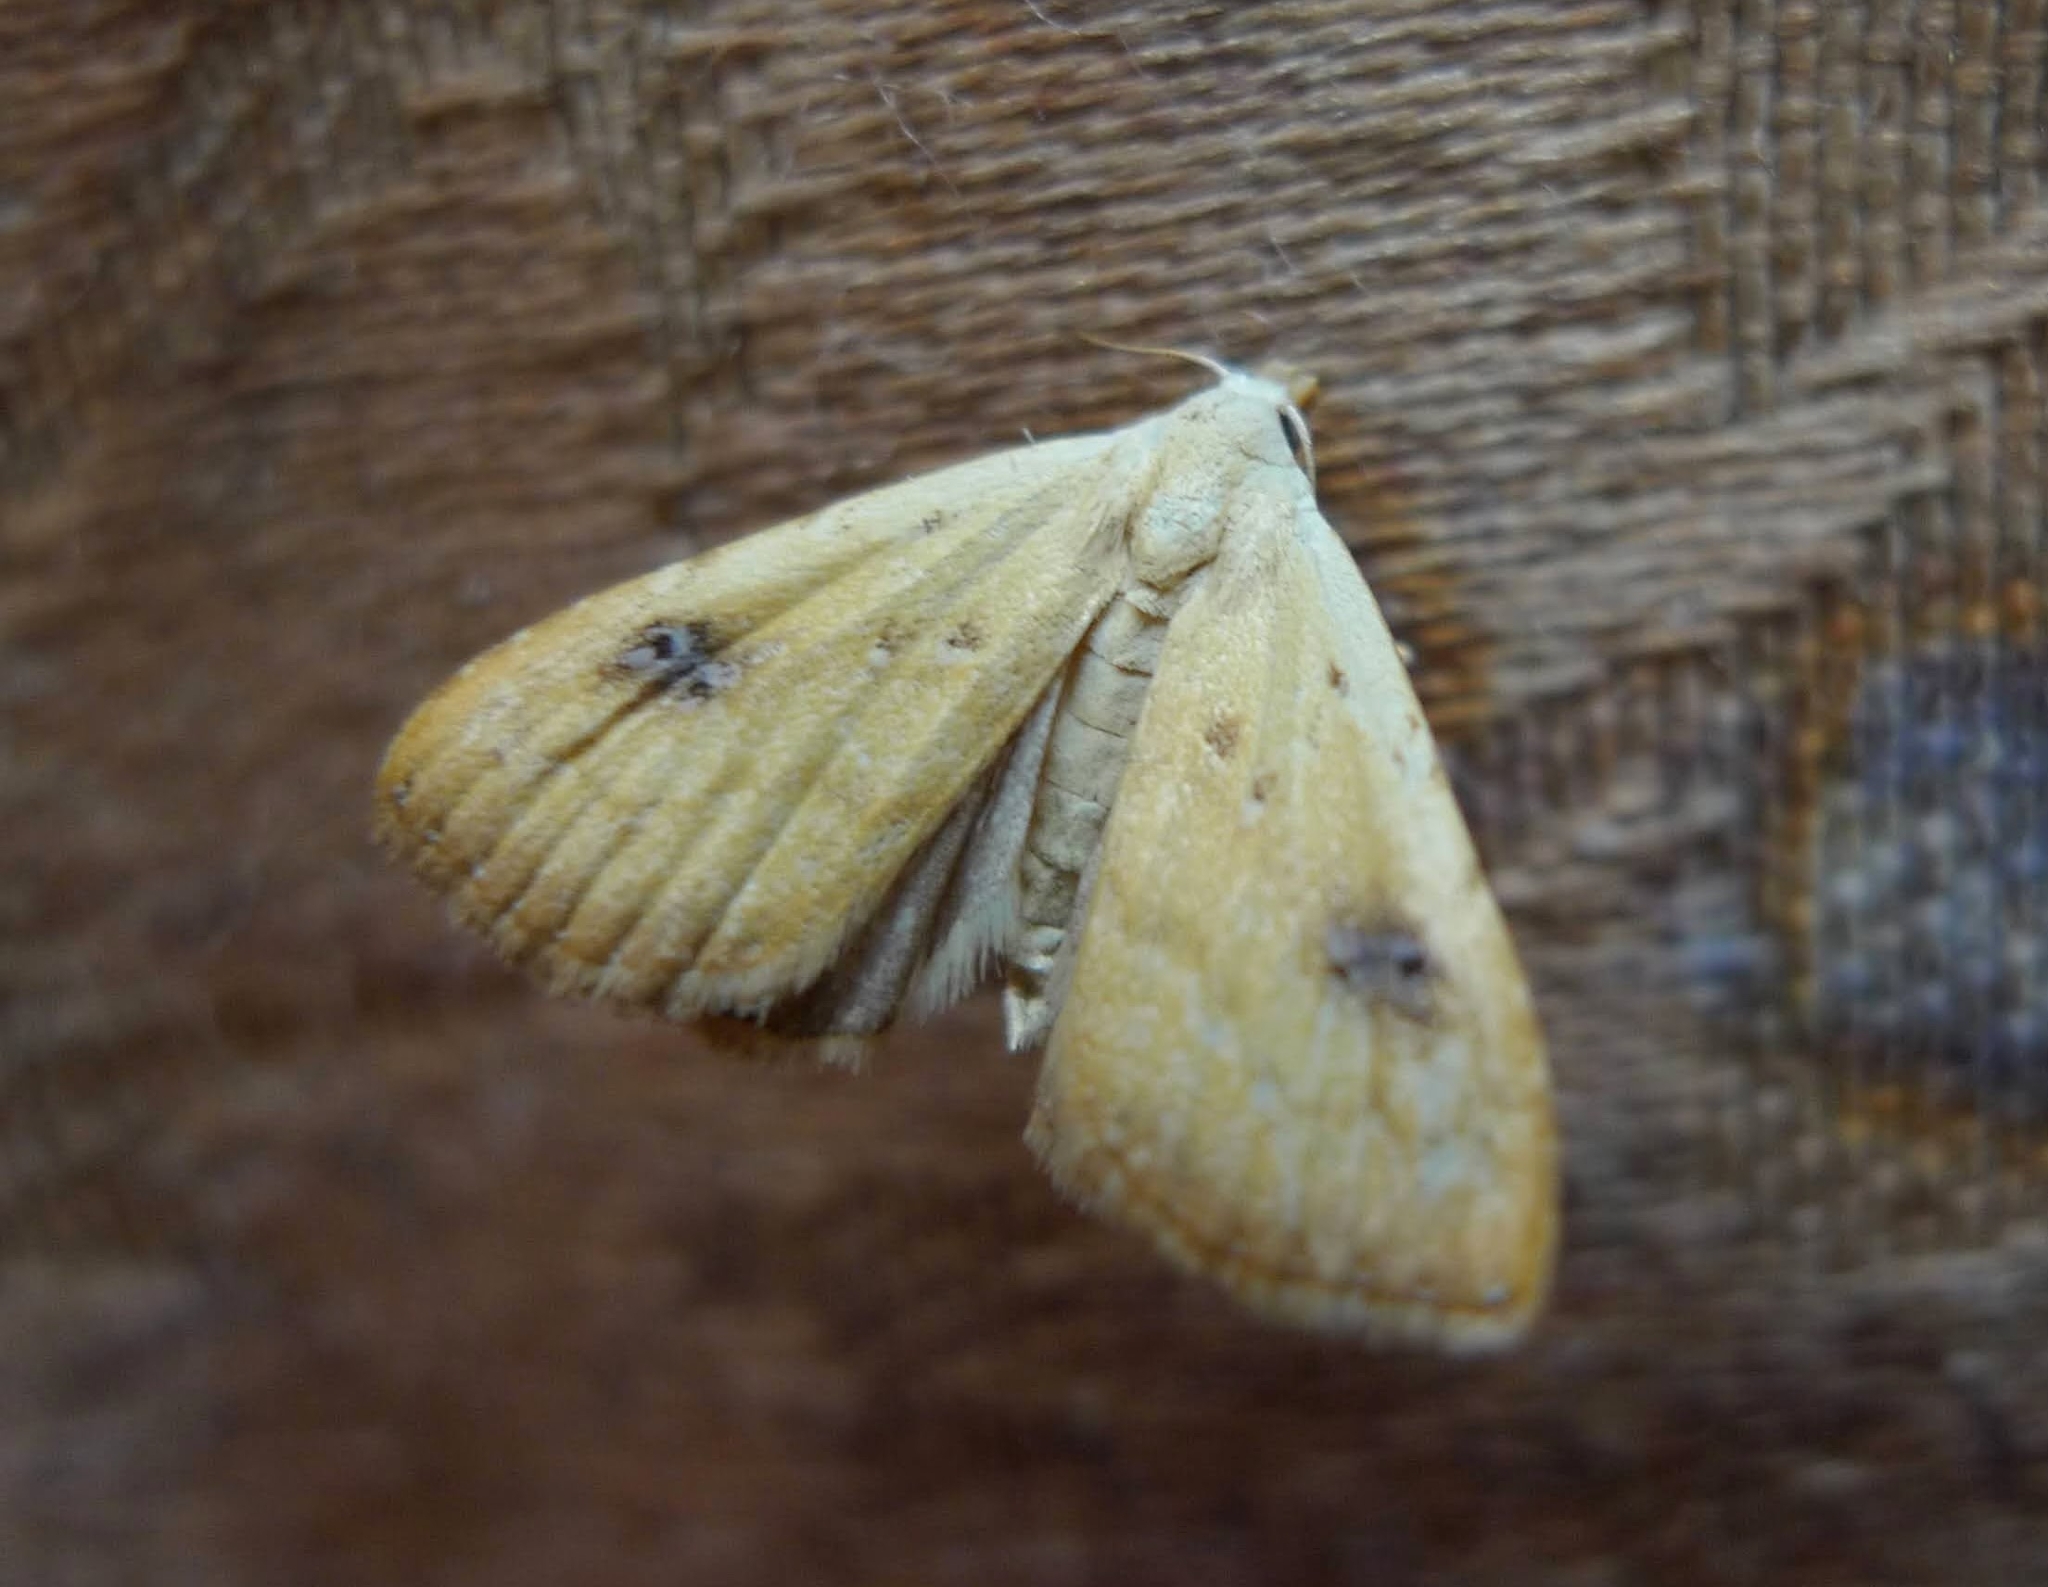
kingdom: Animalia
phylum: Arthropoda
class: Insecta
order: Lepidoptera
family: Erebidae
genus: Rivula
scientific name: Rivula sericealis
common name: Straw dot
